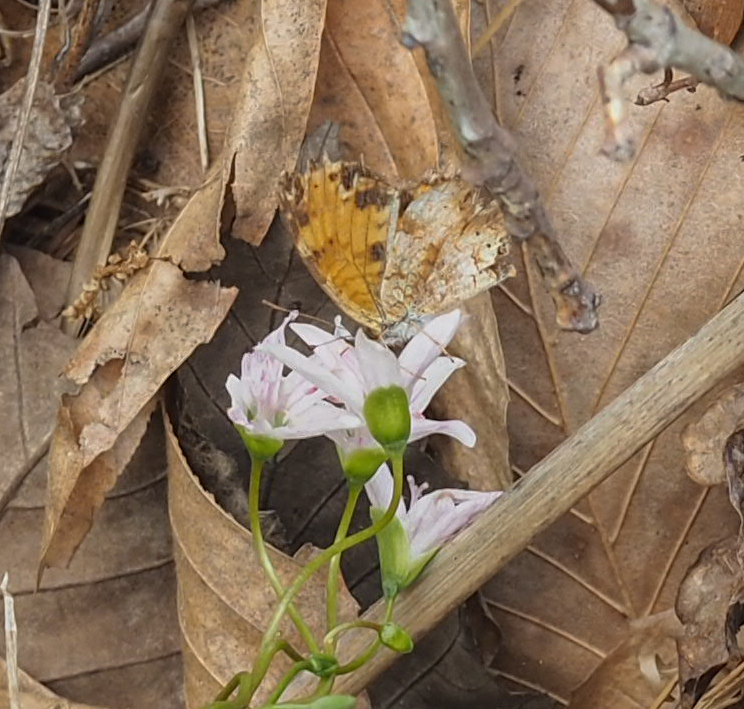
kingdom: Animalia
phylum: Arthropoda
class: Insecta
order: Lepidoptera
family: Nymphalidae
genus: Phyciodes
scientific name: Phyciodes tharos
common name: Pearl crescent
